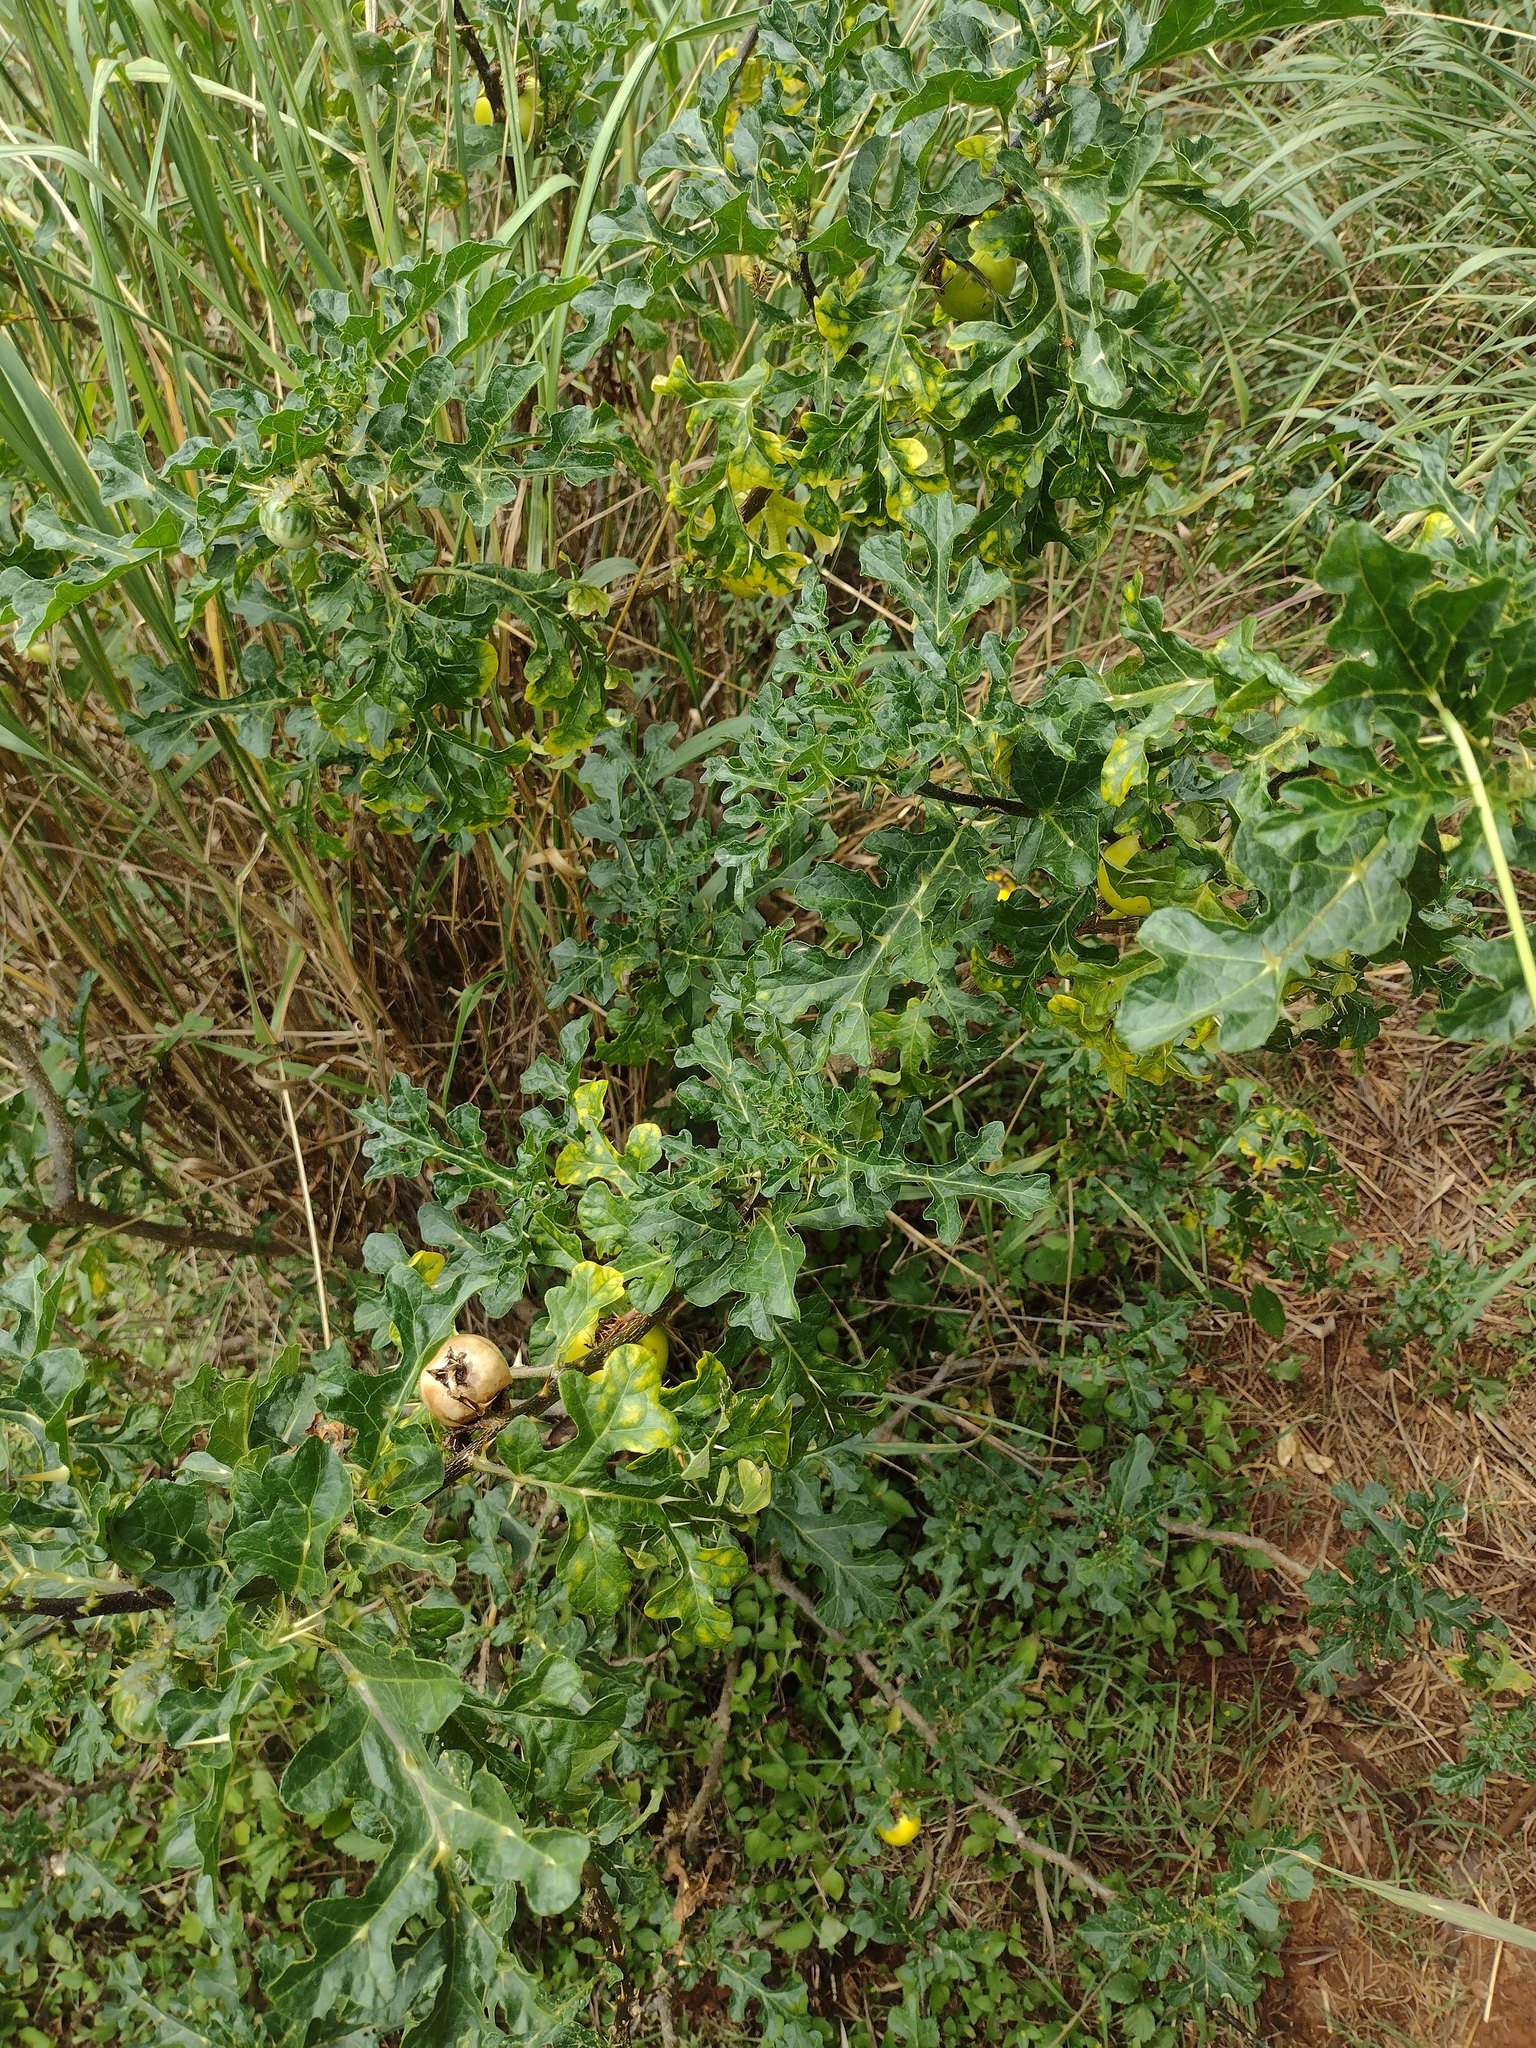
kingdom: Plantae
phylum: Tracheophyta
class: Magnoliopsida
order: Solanales
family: Solanaceae
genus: Solanum
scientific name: Solanum linnaeanum
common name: Nightshade
